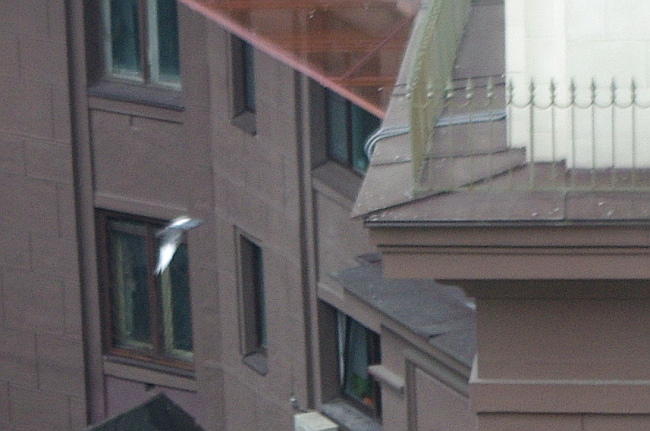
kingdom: Animalia
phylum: Chordata
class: Aves
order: Columbiformes
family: Columbidae
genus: Columba
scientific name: Columba livia
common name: Rock pigeon
